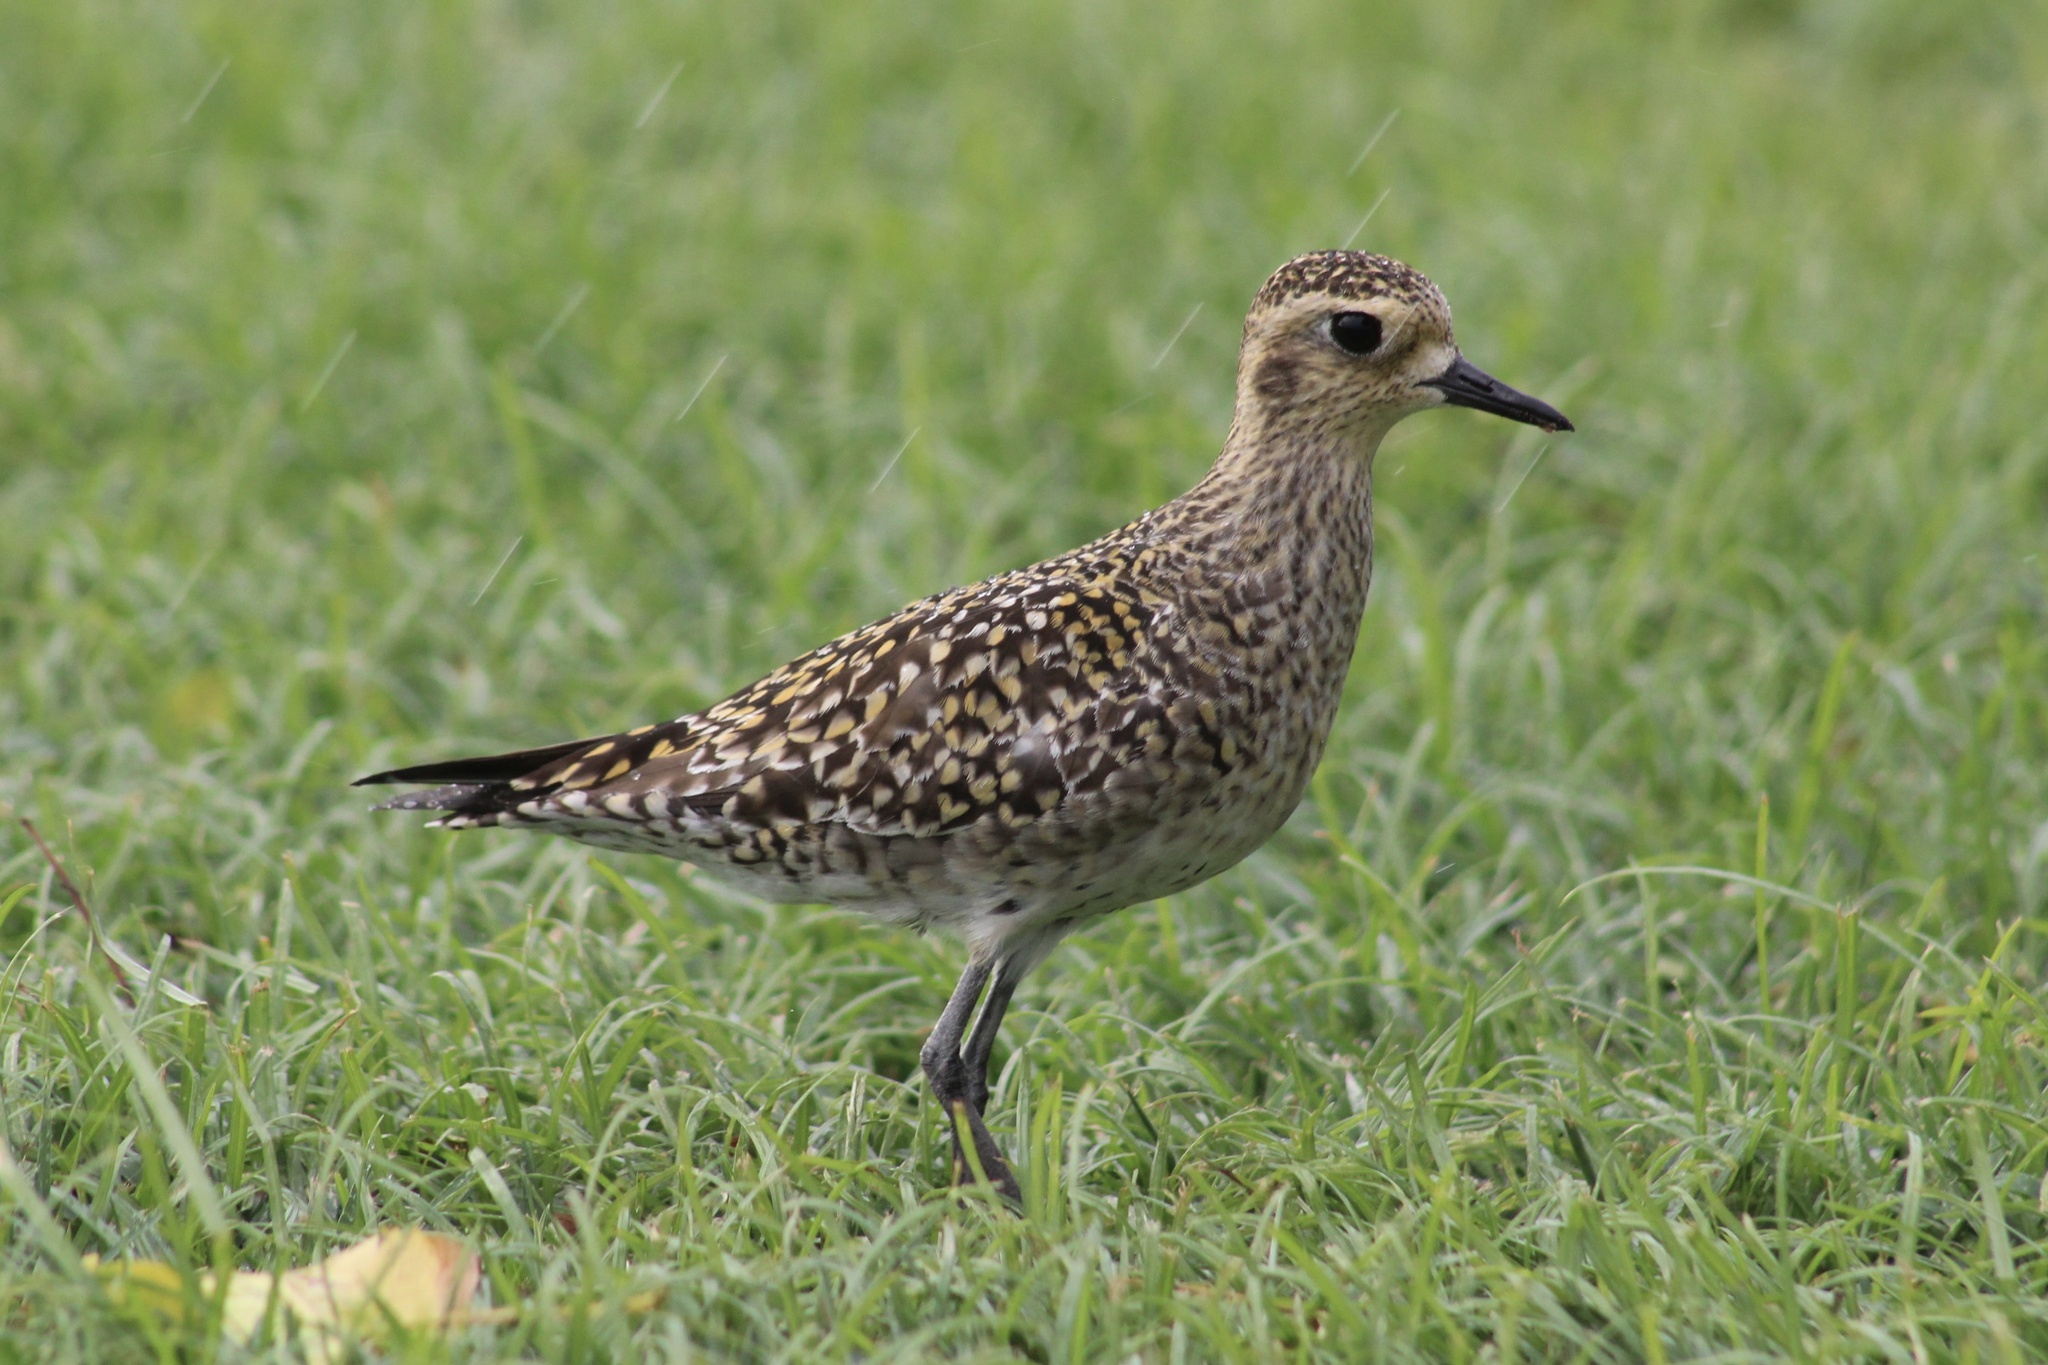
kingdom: Animalia
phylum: Chordata
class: Aves
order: Charadriiformes
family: Charadriidae
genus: Pluvialis
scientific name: Pluvialis fulva
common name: Pacific golden plover
